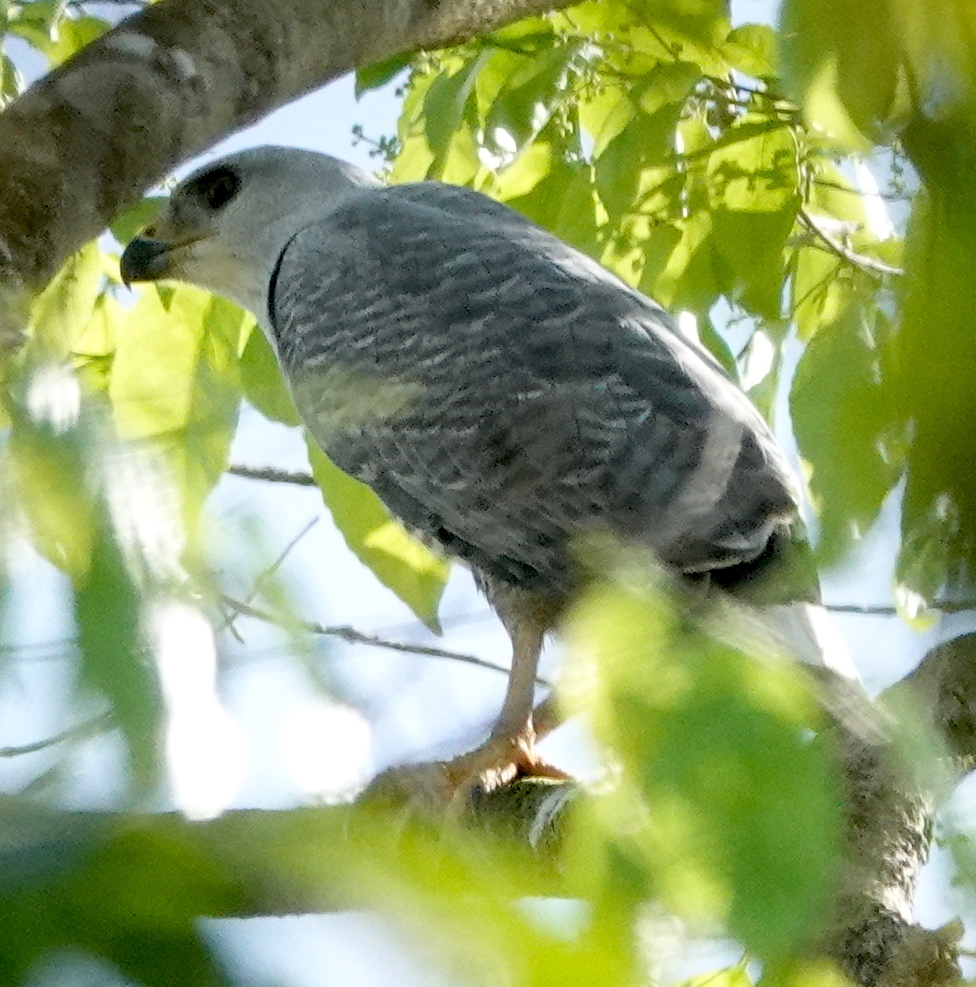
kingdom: Animalia
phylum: Chordata
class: Aves
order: Accipitriformes
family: Accipitridae
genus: Buteo
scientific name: Buteo nitidus
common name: Grey-lined hawk
